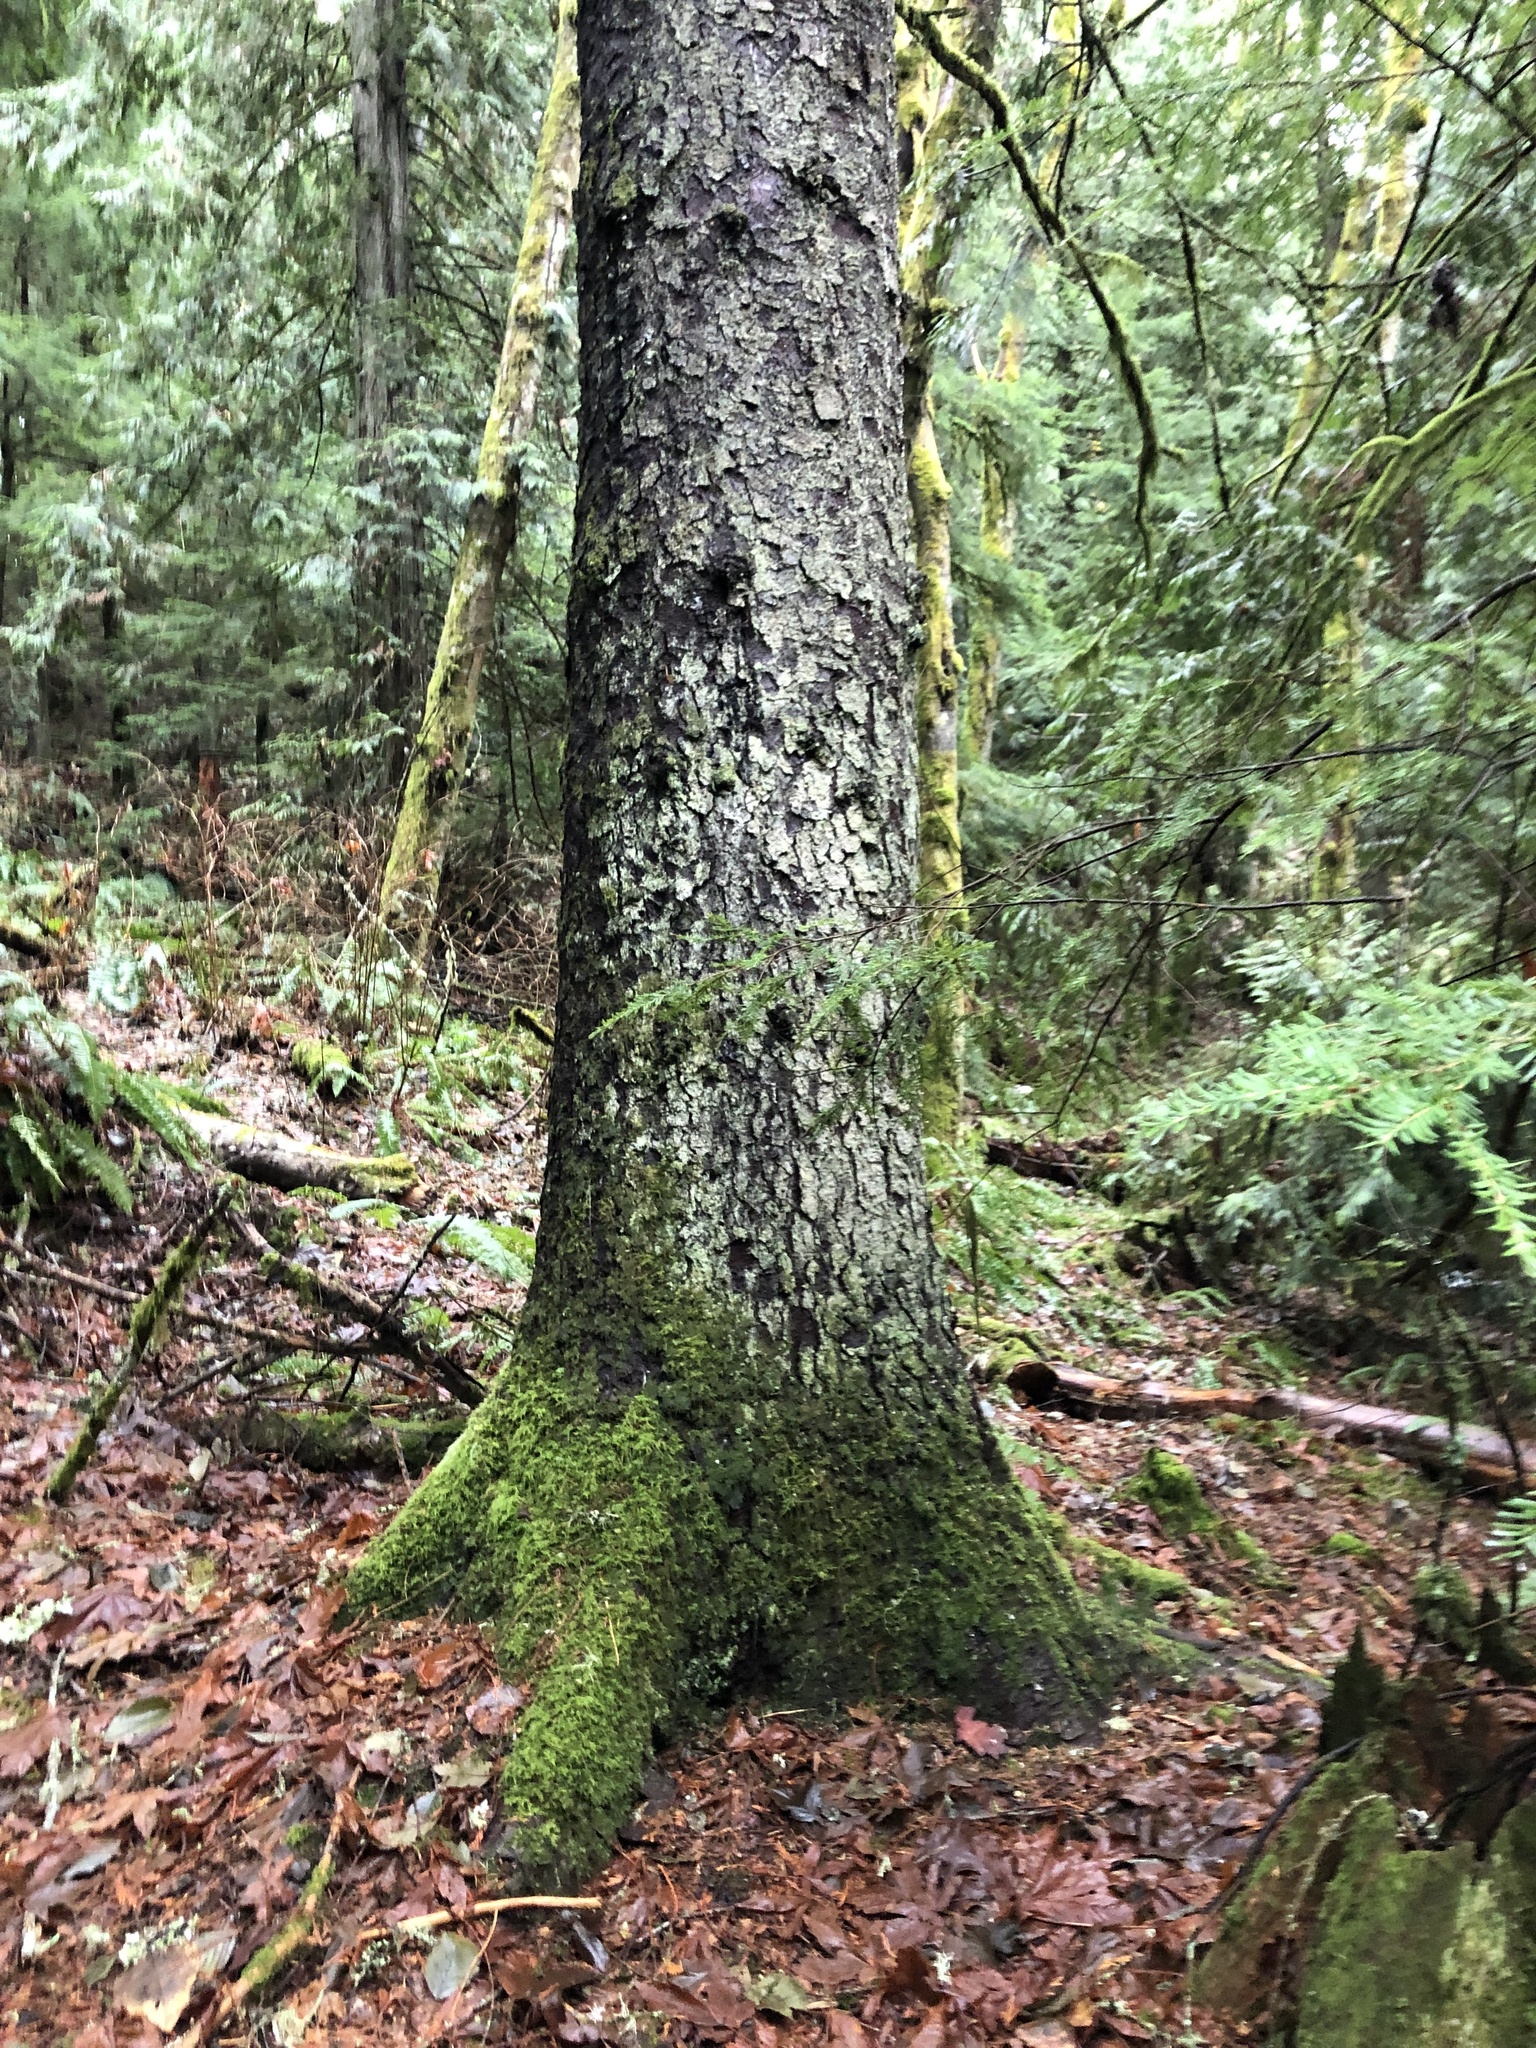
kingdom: Plantae
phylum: Tracheophyta
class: Pinopsida
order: Pinales
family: Pinaceae
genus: Picea
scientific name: Picea sitchensis
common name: Sitka spruce
